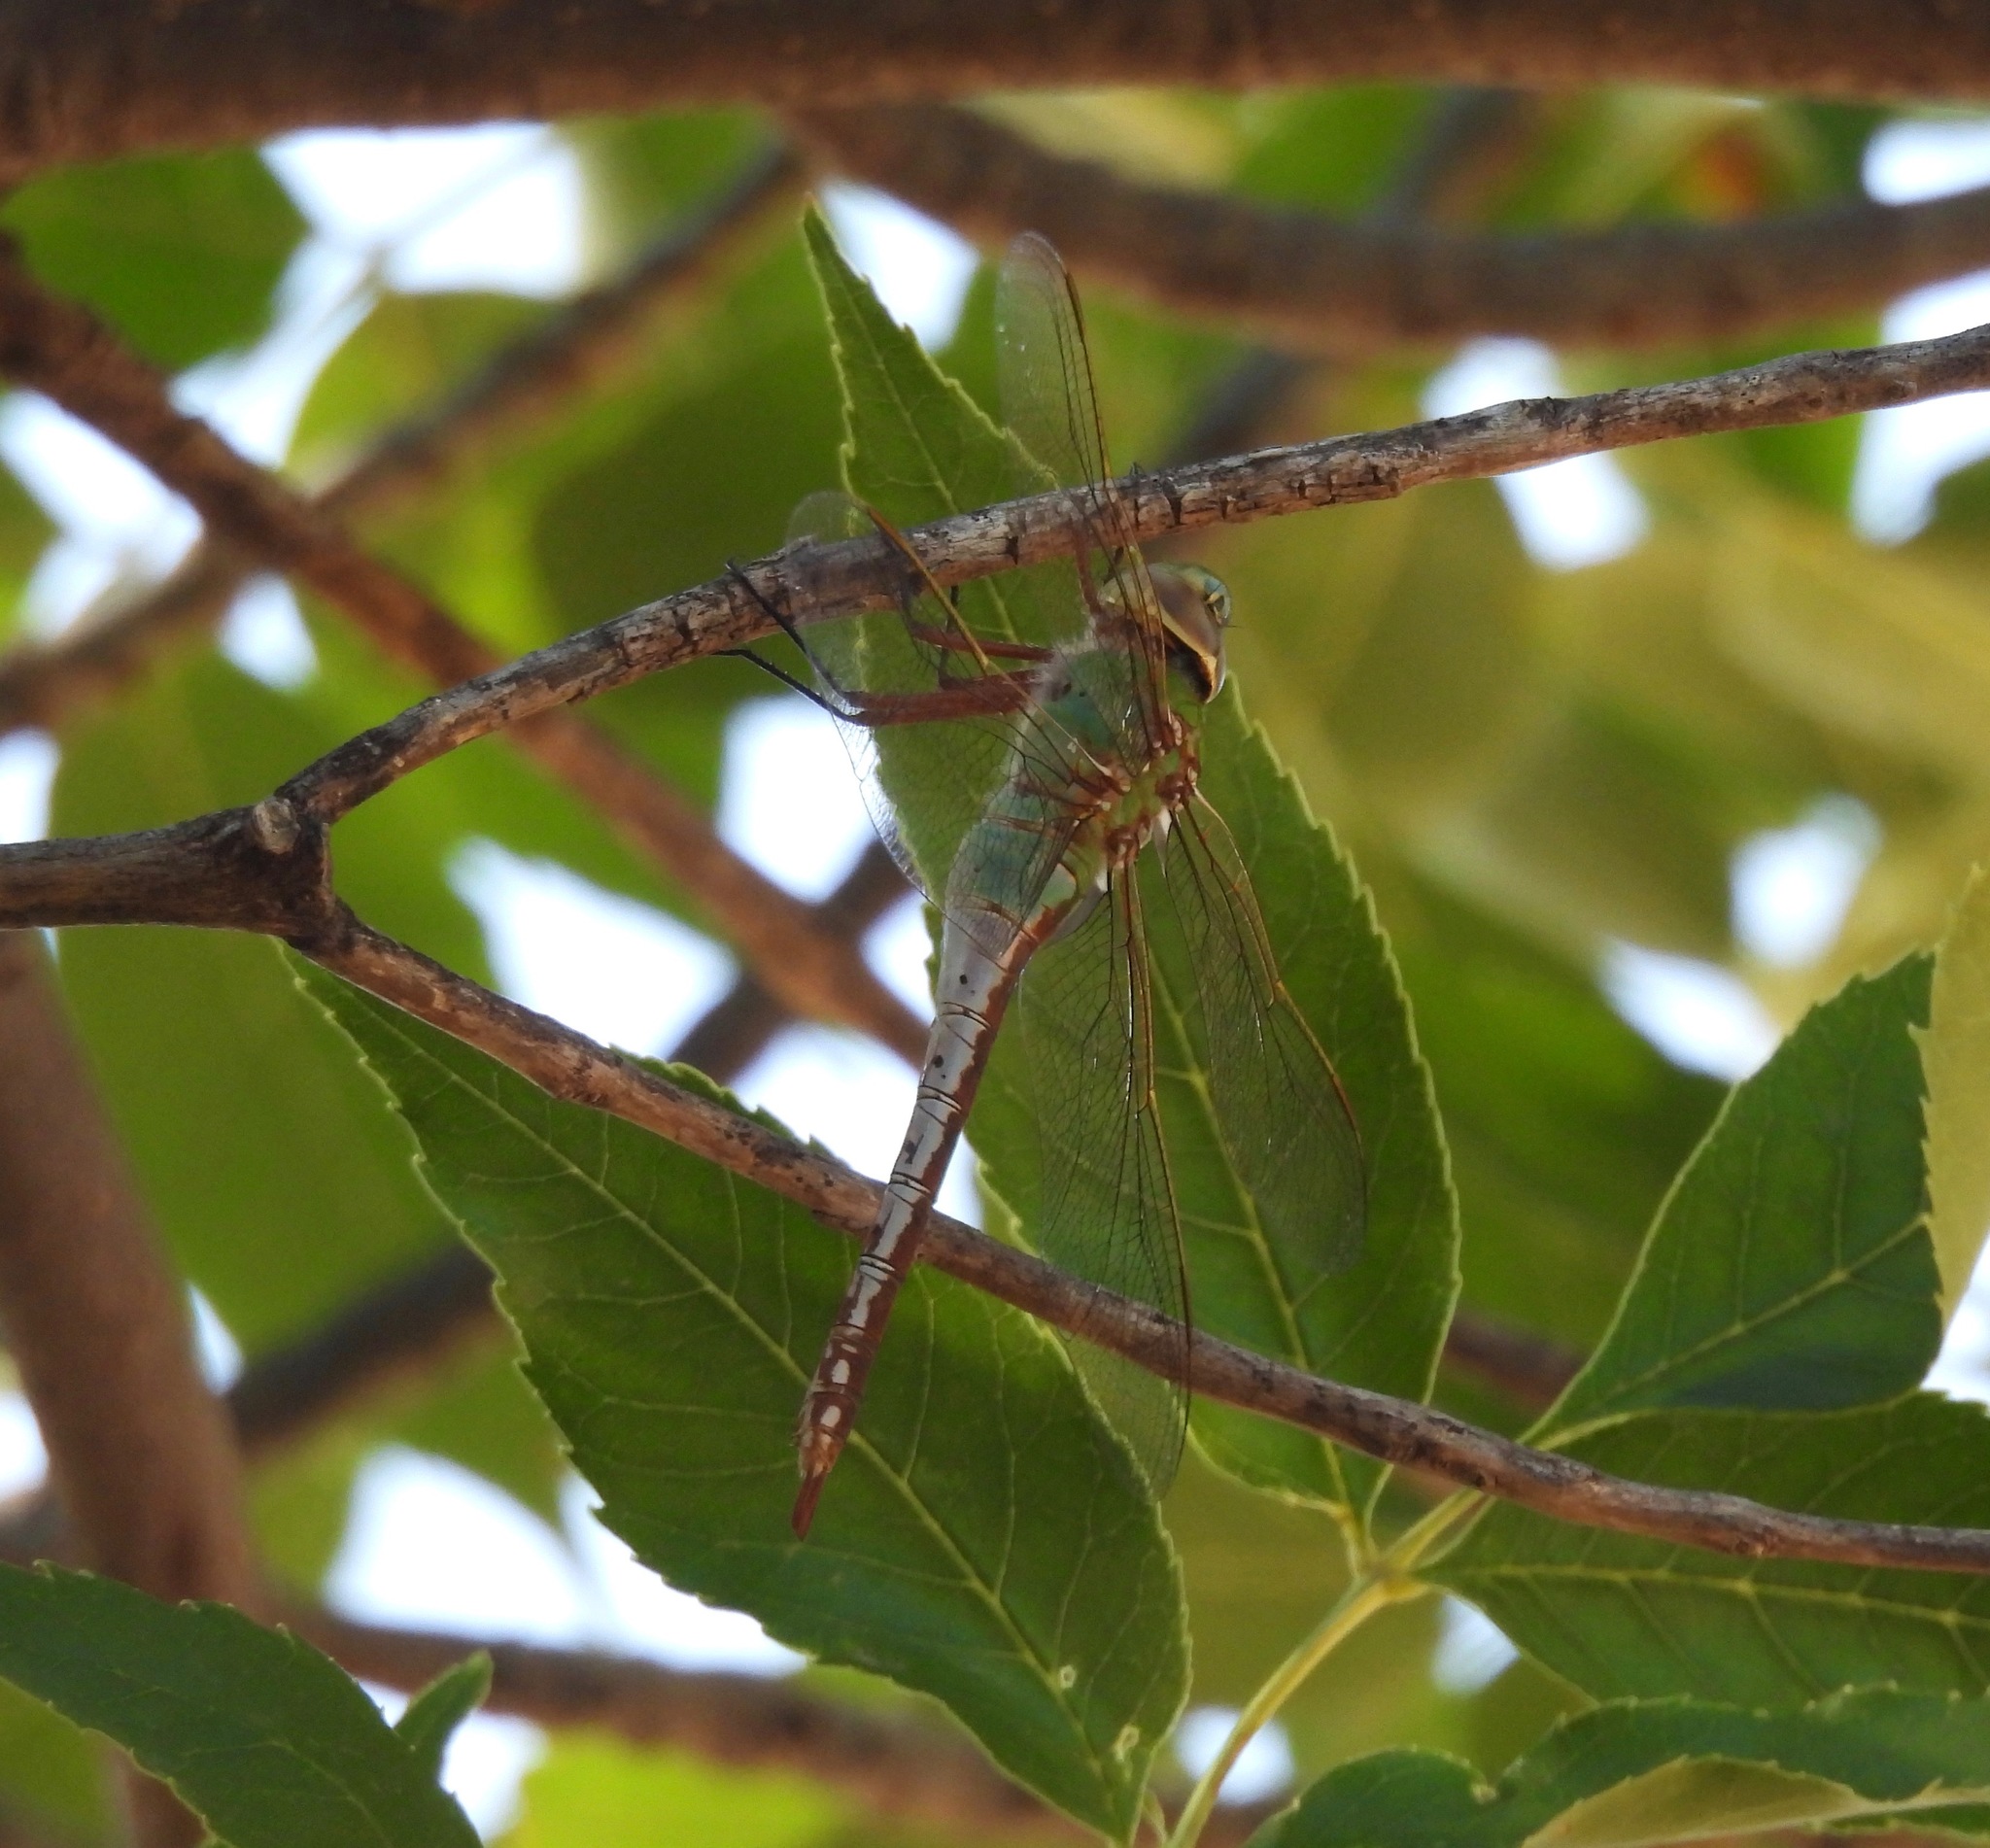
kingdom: Animalia
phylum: Arthropoda
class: Insecta
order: Odonata
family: Aeshnidae
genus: Anax
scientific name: Anax junius
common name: Common green darner
